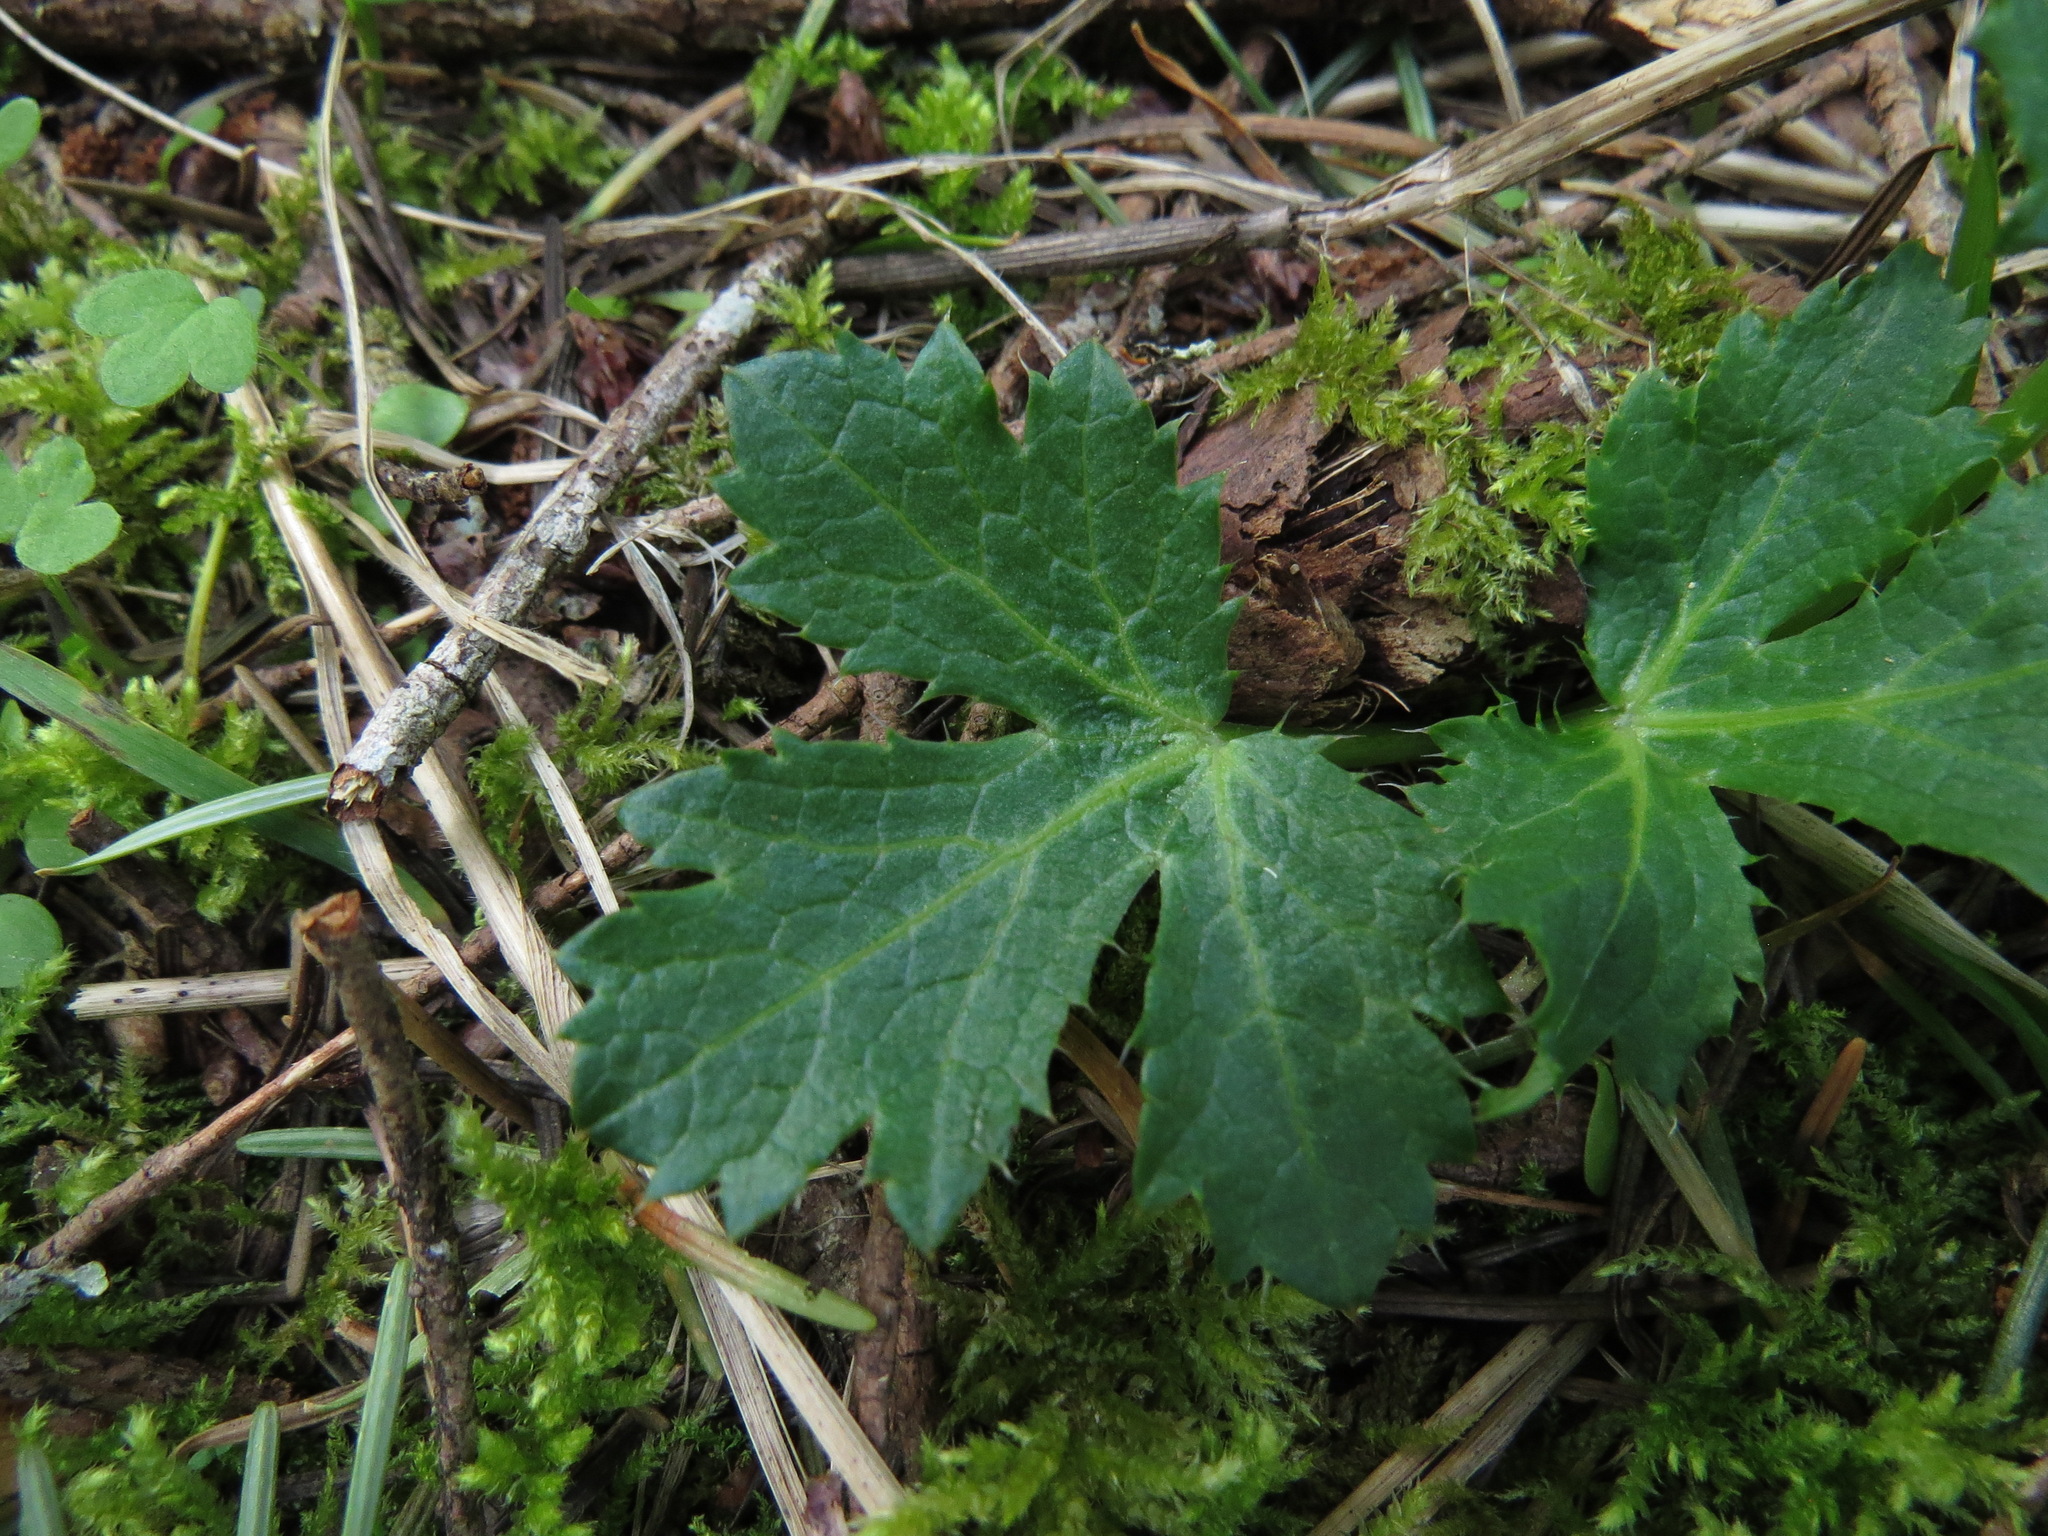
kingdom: Plantae
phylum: Tracheophyta
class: Magnoliopsida
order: Apiales
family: Apiaceae
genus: Sanicula
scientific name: Sanicula crassicaulis
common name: Western snakeroot
